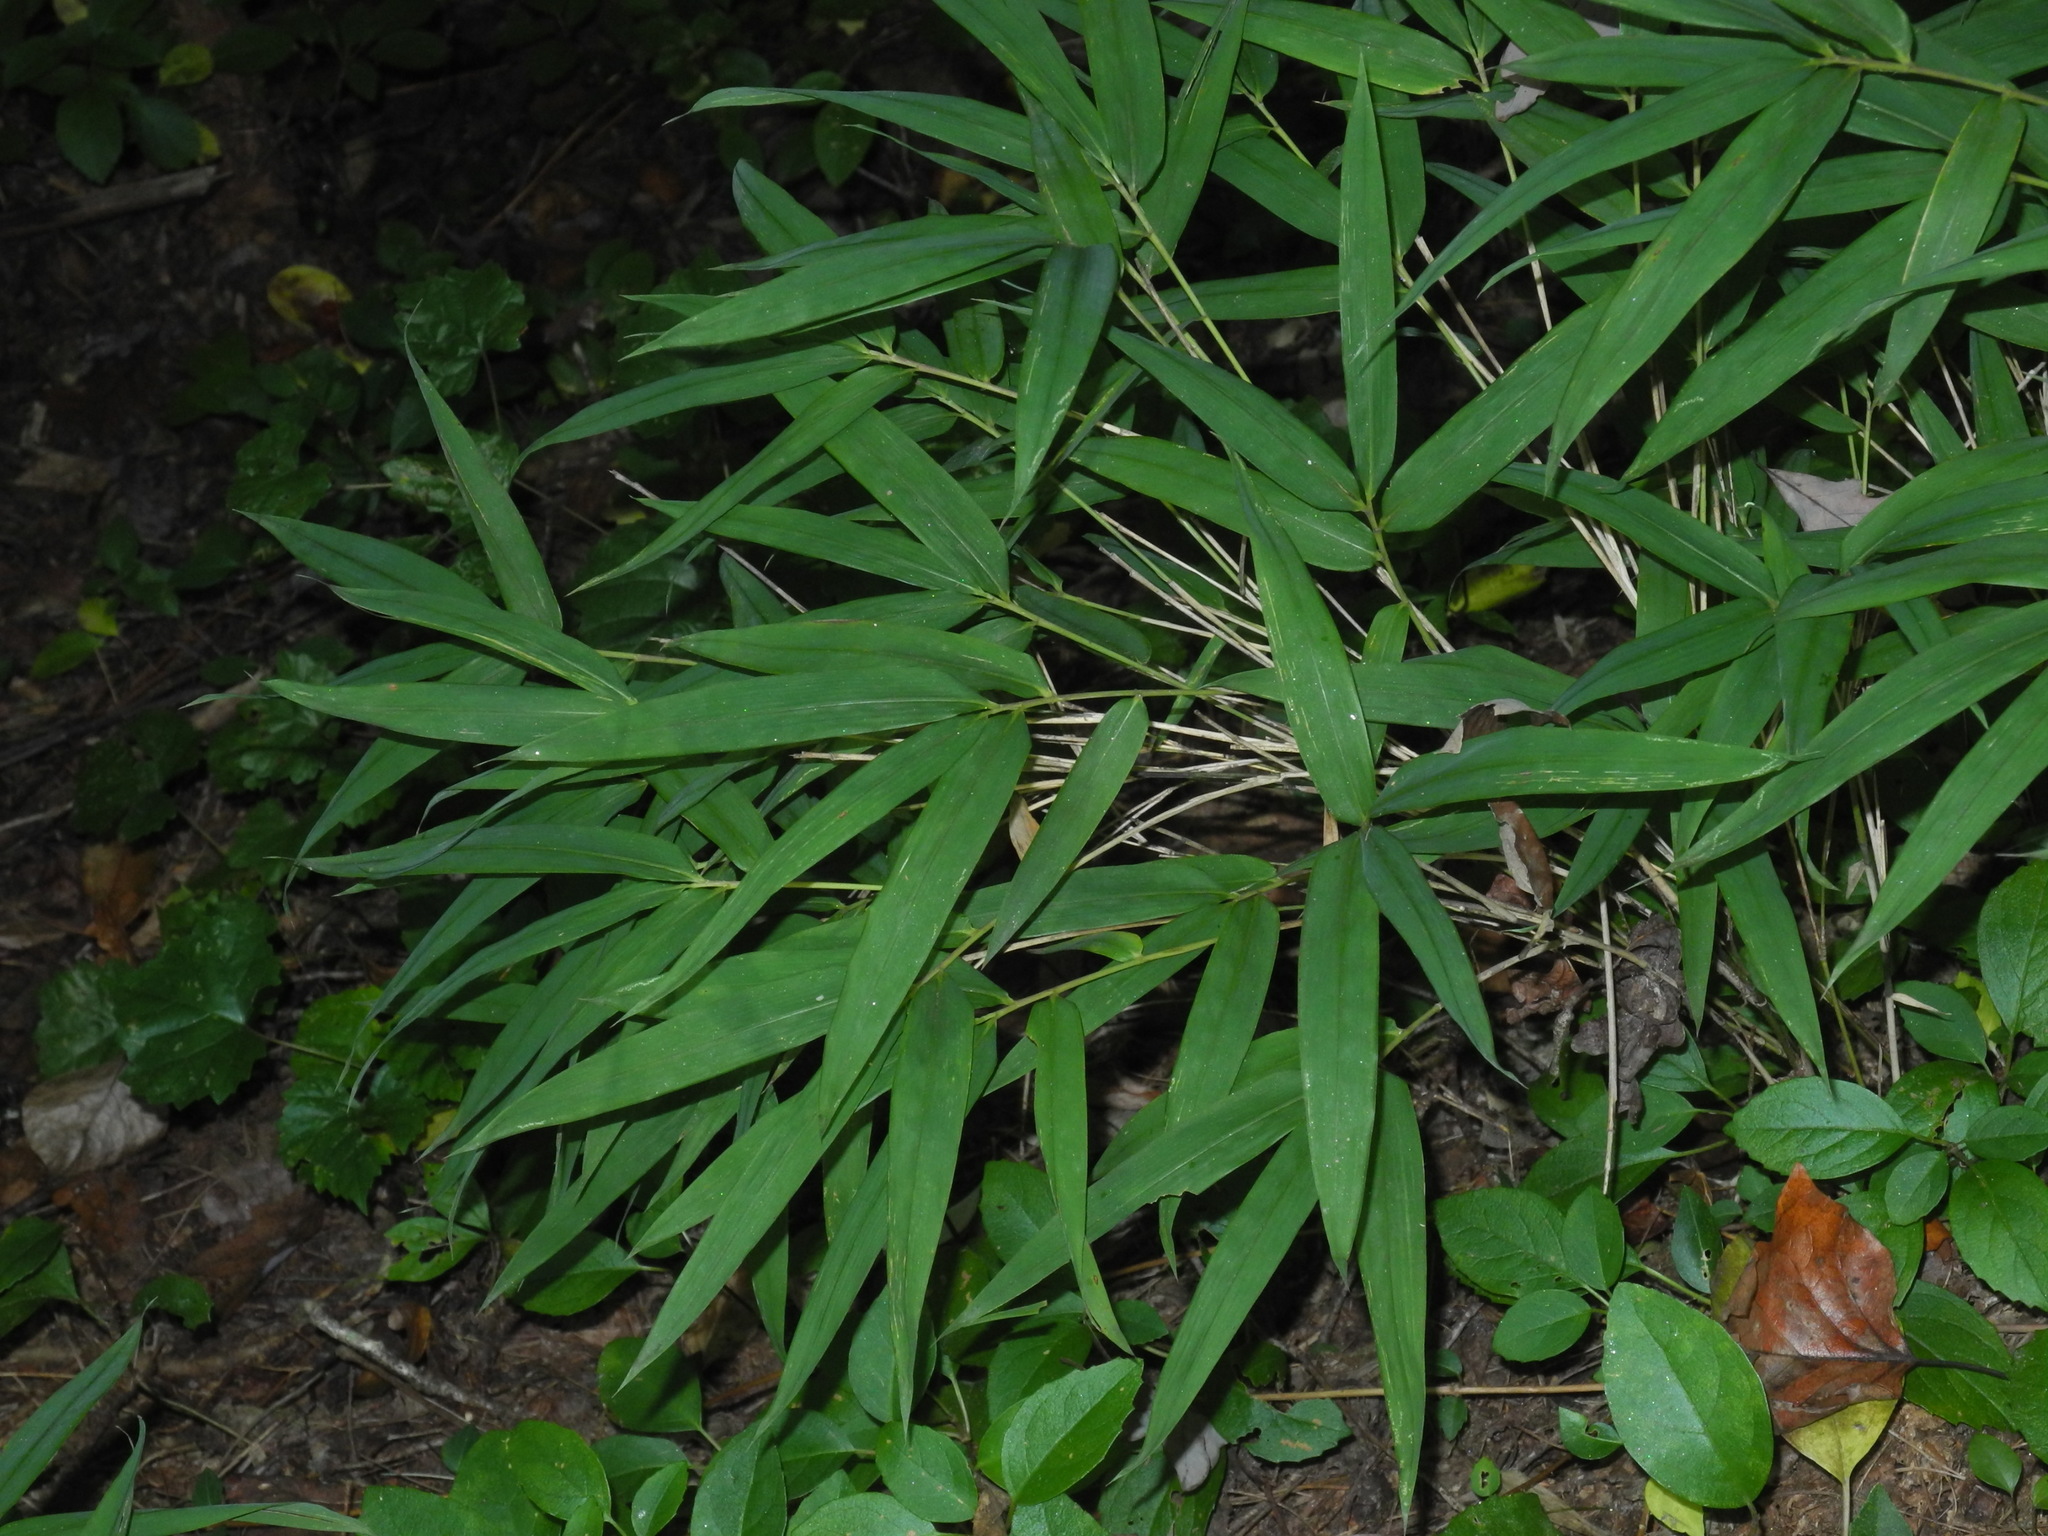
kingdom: Plantae
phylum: Tracheophyta
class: Liliopsida
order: Poales
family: Poaceae
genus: Arundinaria
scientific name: Arundinaria appalachiana
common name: Hill cane
